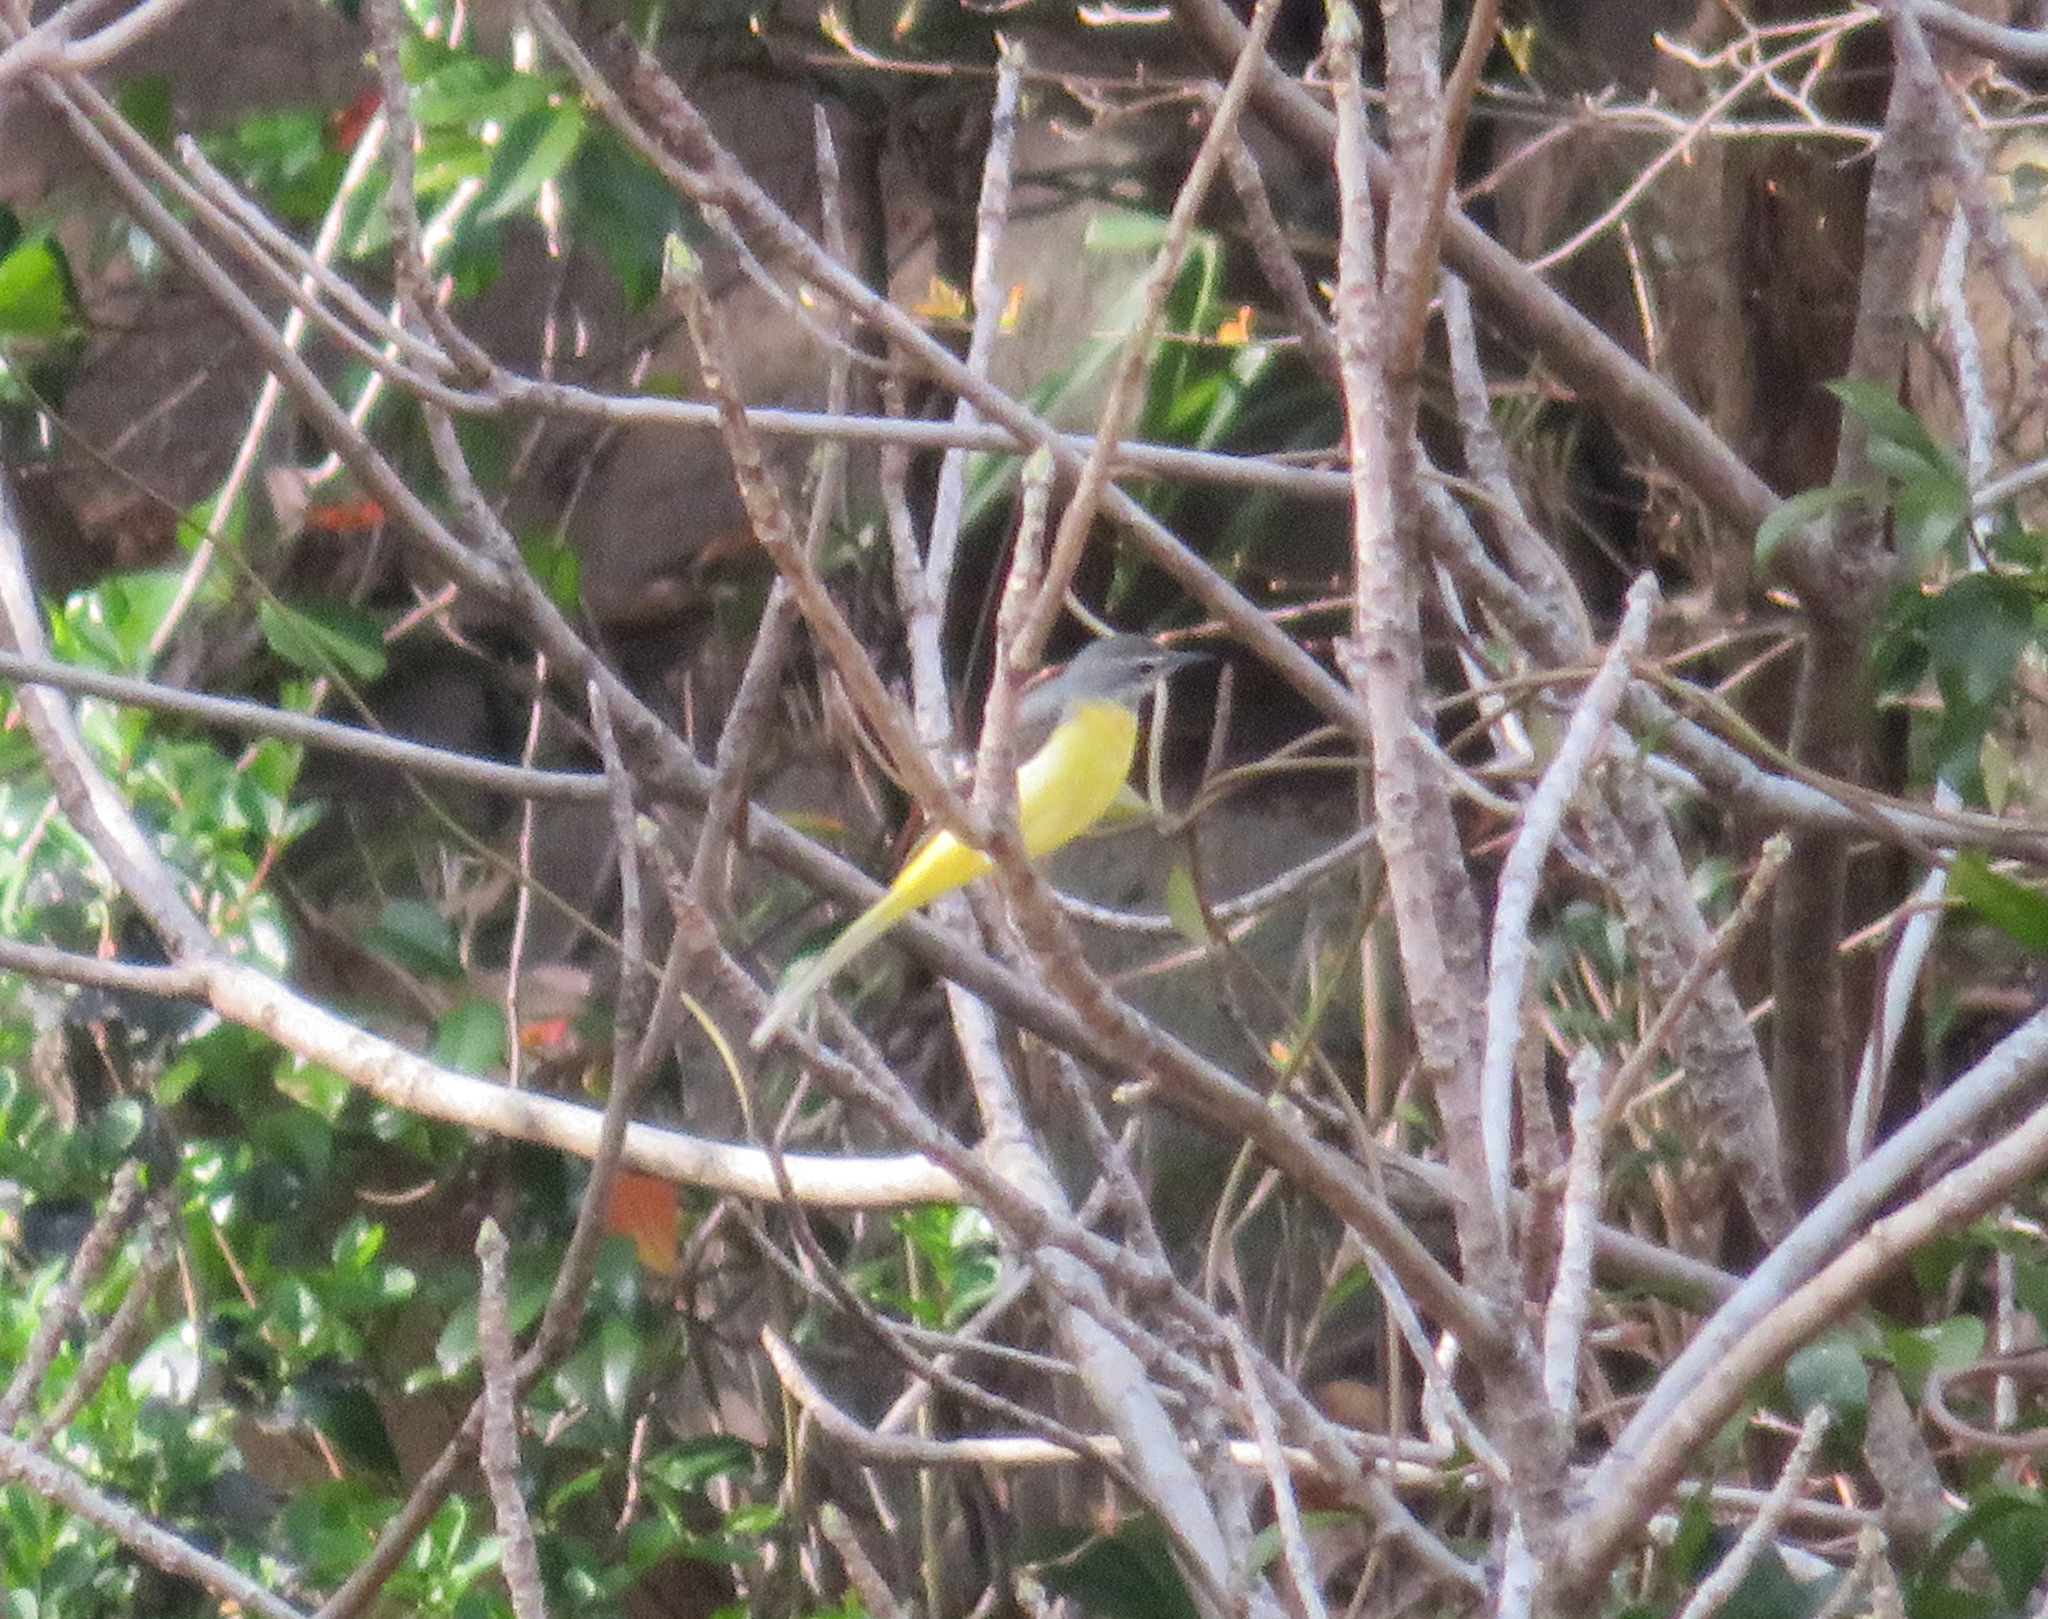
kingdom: Animalia
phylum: Chordata
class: Aves
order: Passeriformes
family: Motacillidae
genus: Motacilla
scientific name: Motacilla cinerea
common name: Grey wagtail
